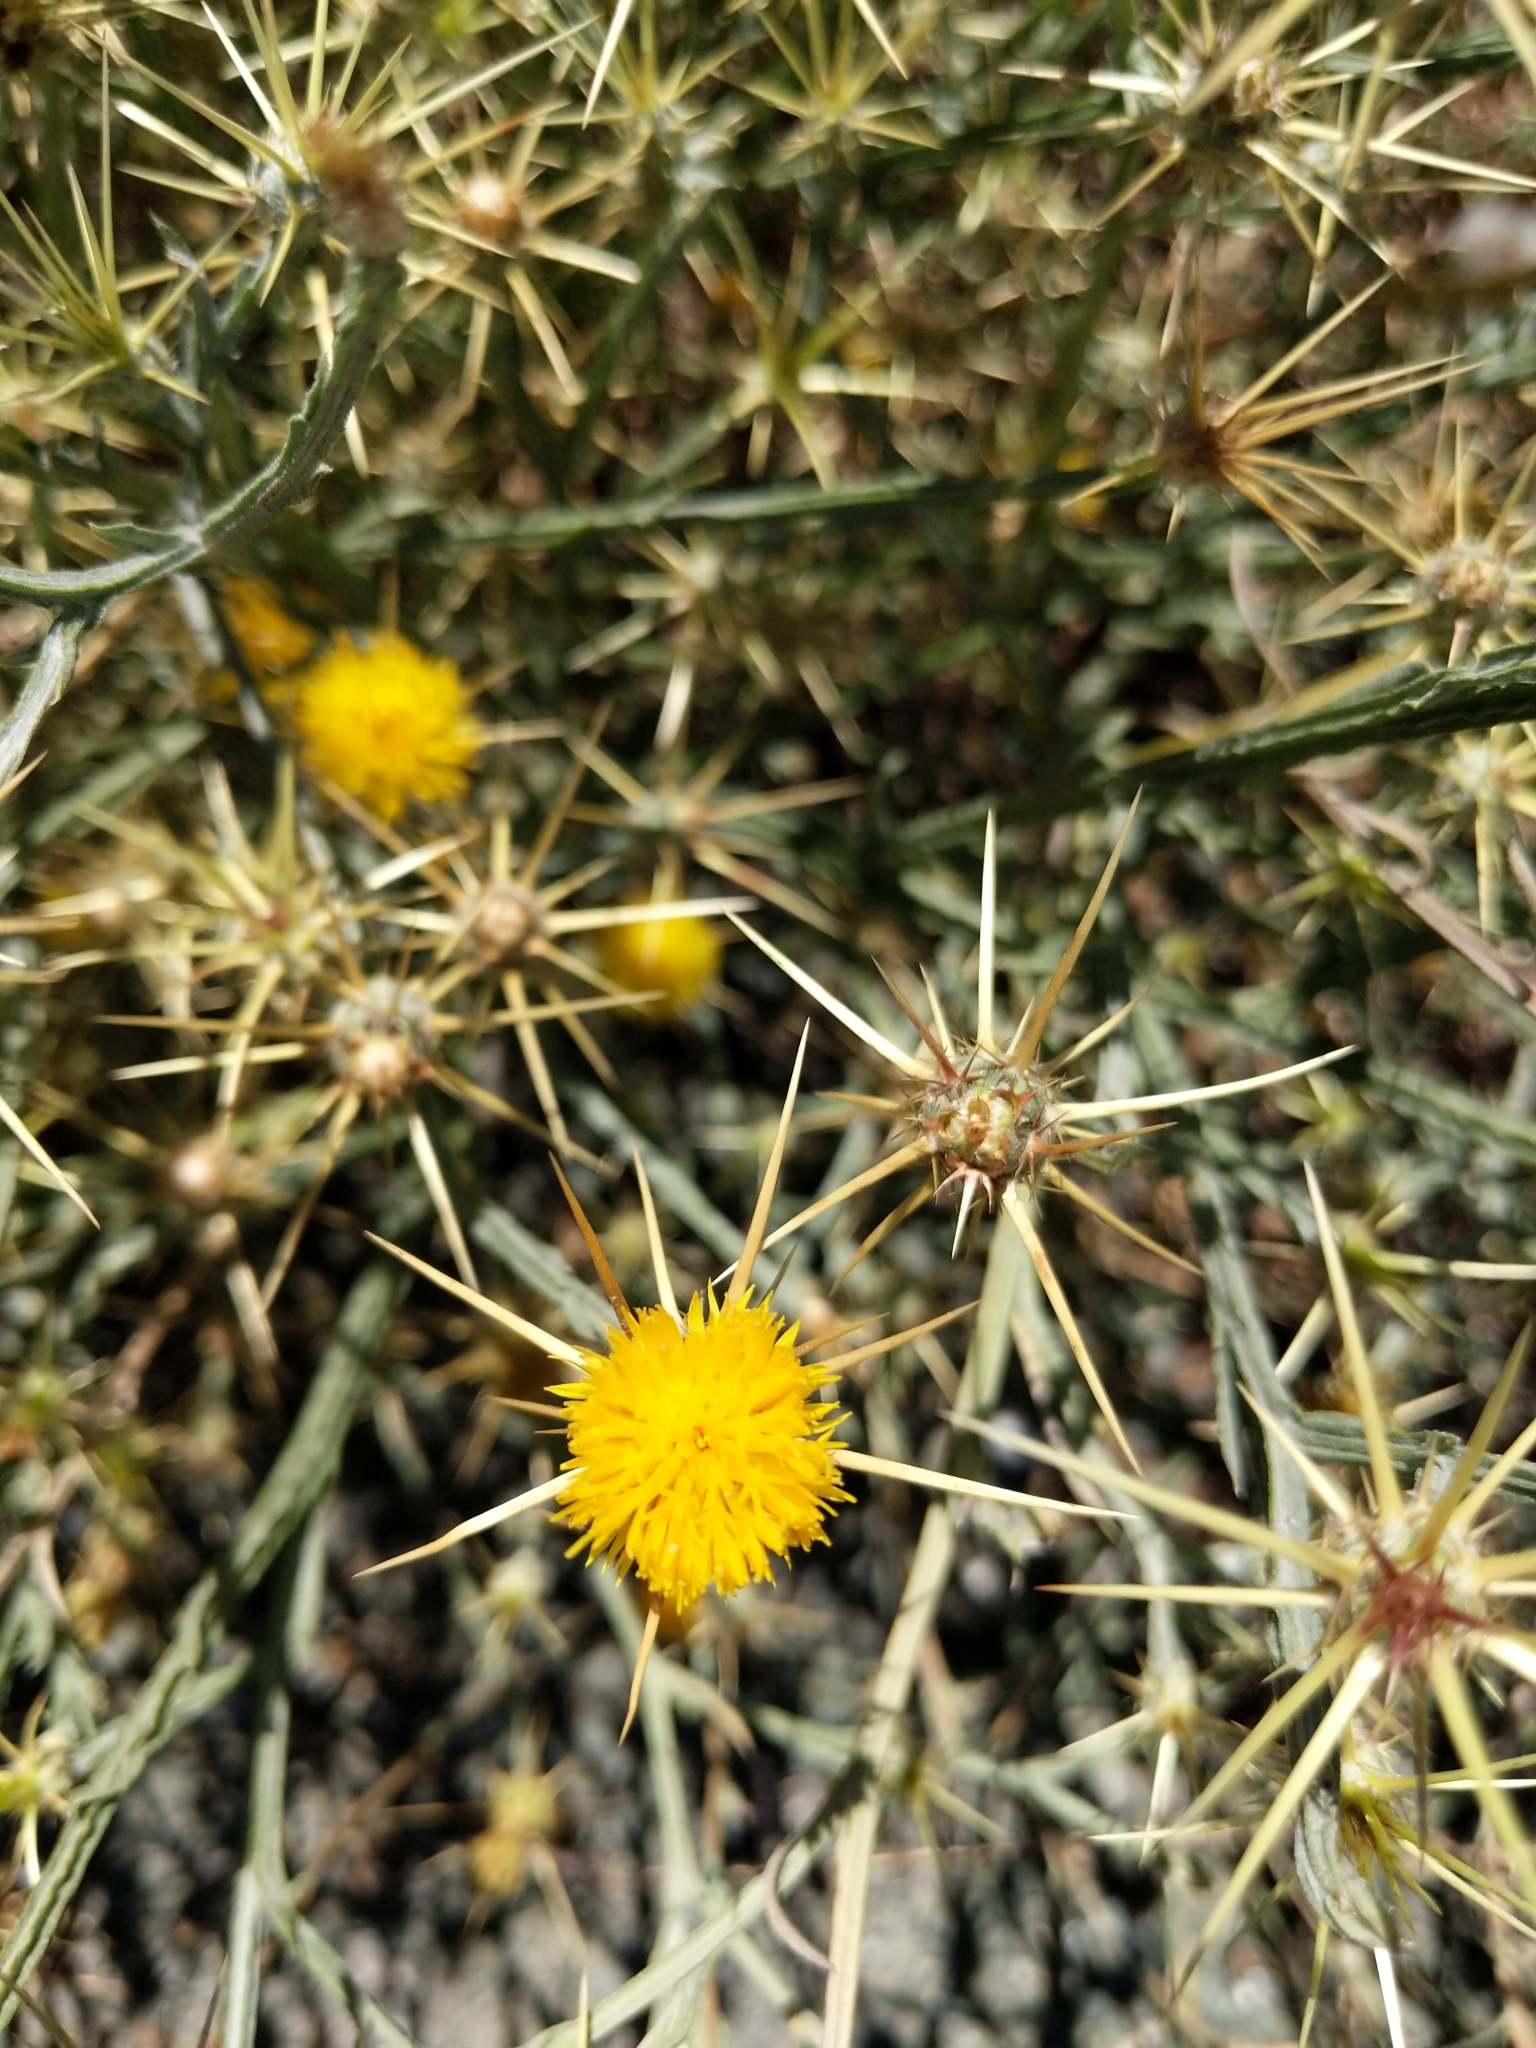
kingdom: Plantae
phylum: Tracheophyta
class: Magnoliopsida
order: Asterales
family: Asteraceae
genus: Centaurea
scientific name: Centaurea solstitialis
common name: Yellow star-thistle
